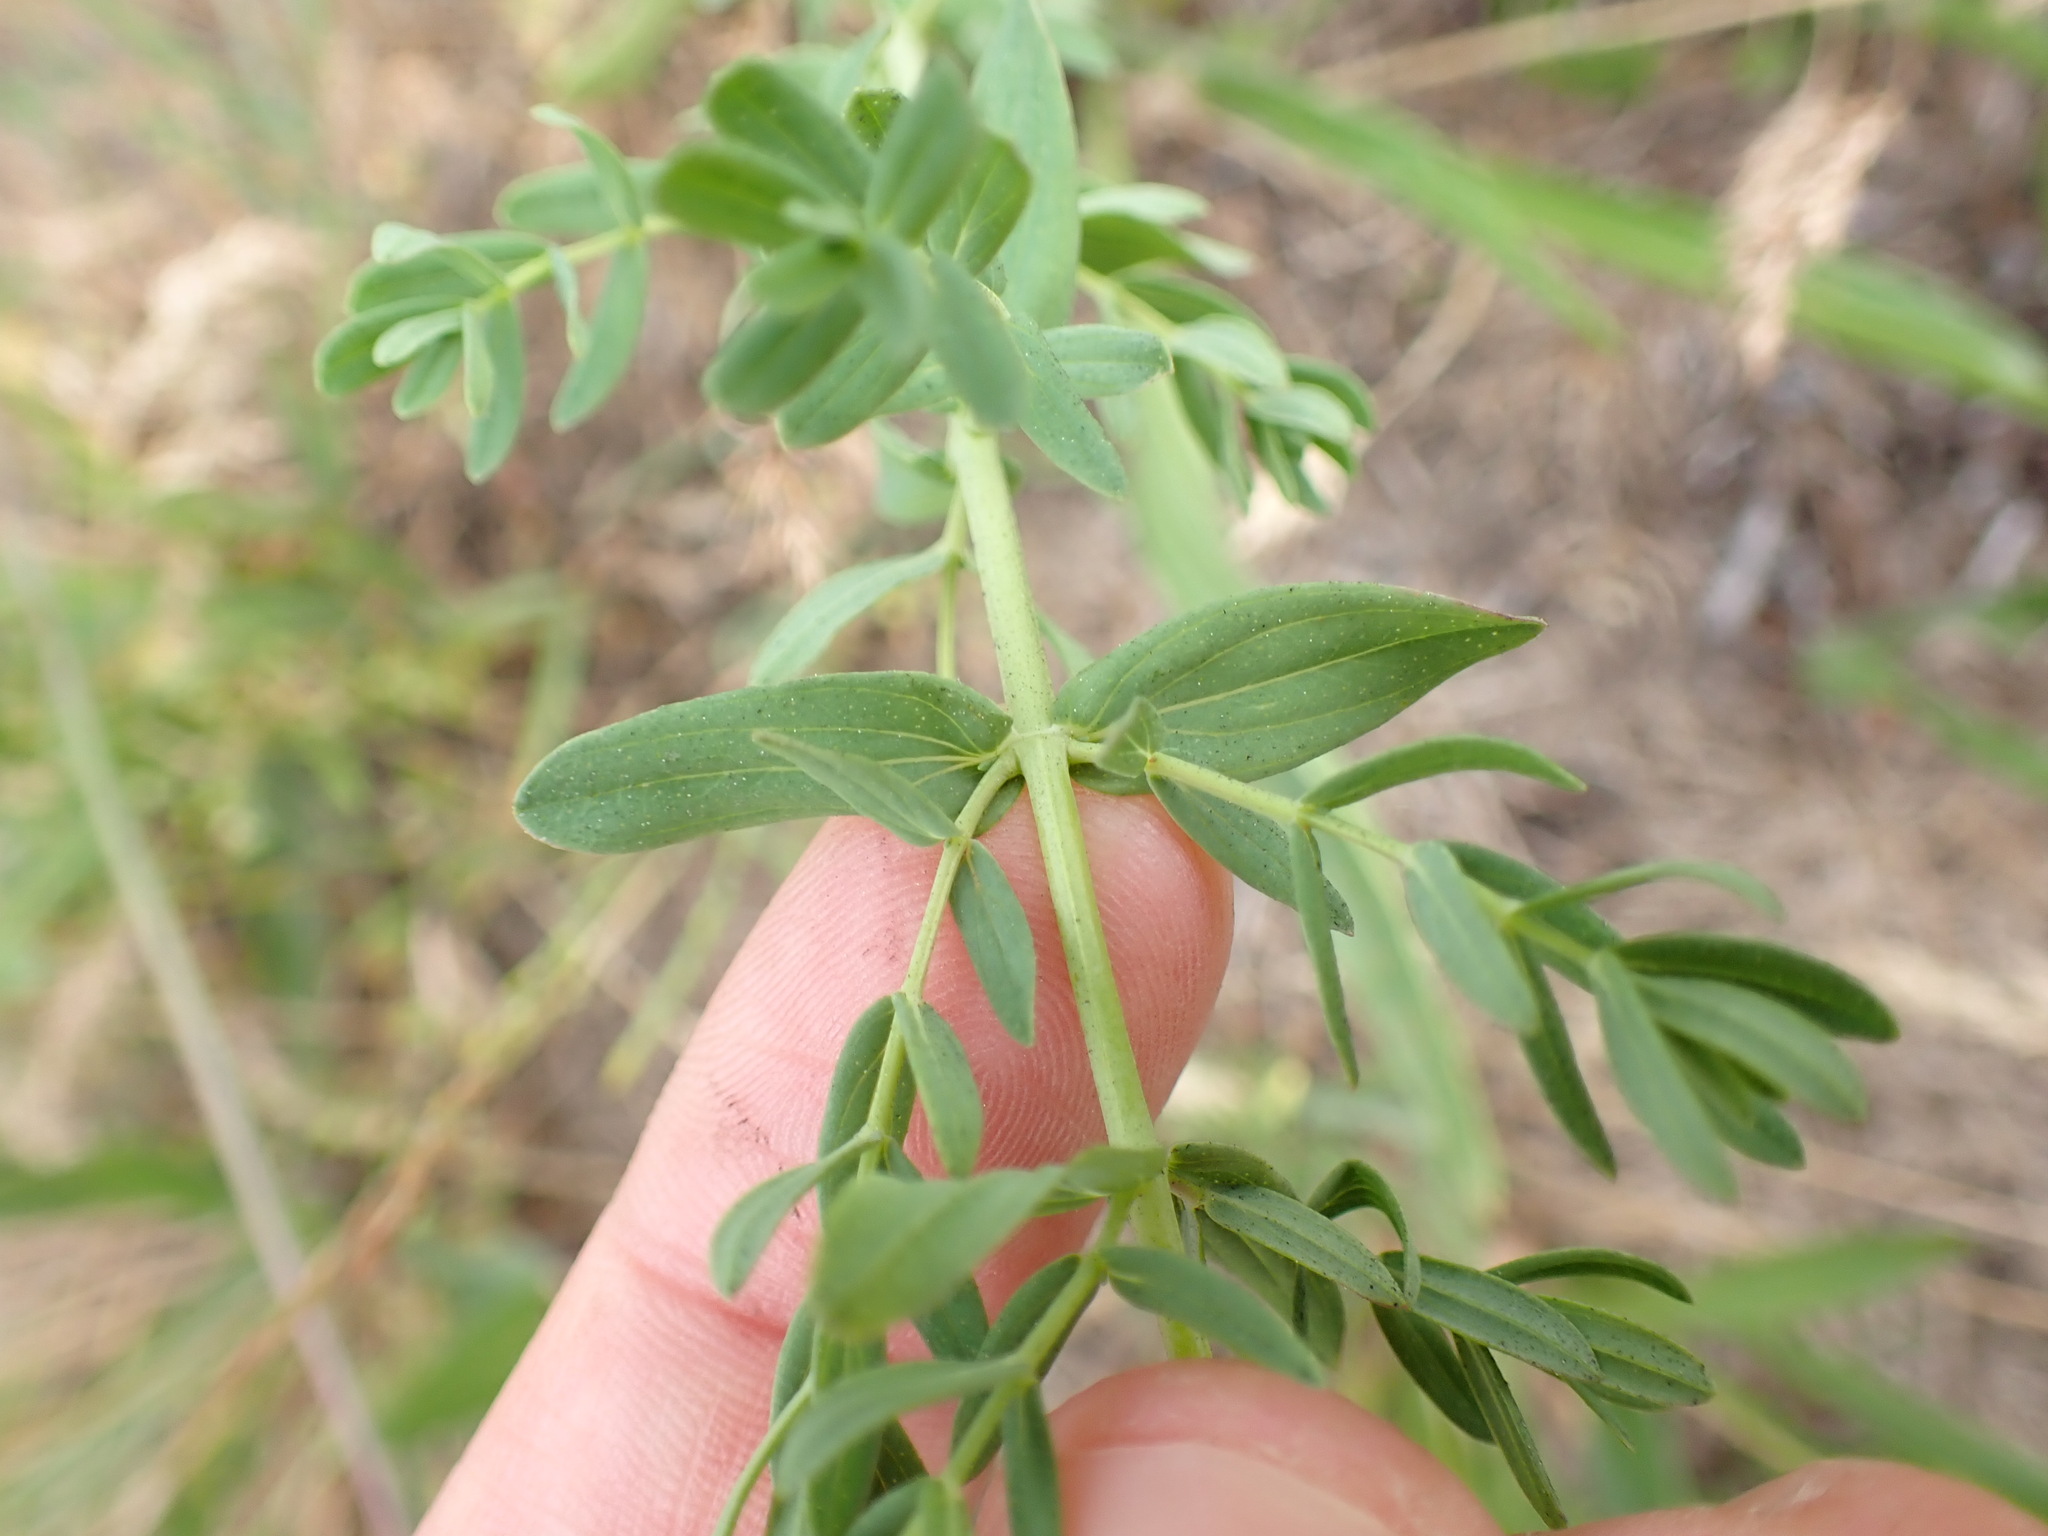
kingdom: Plantae
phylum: Tracheophyta
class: Magnoliopsida
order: Malpighiales
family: Hypericaceae
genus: Hypericum
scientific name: Hypericum perforatum
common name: Common st. johnswort
